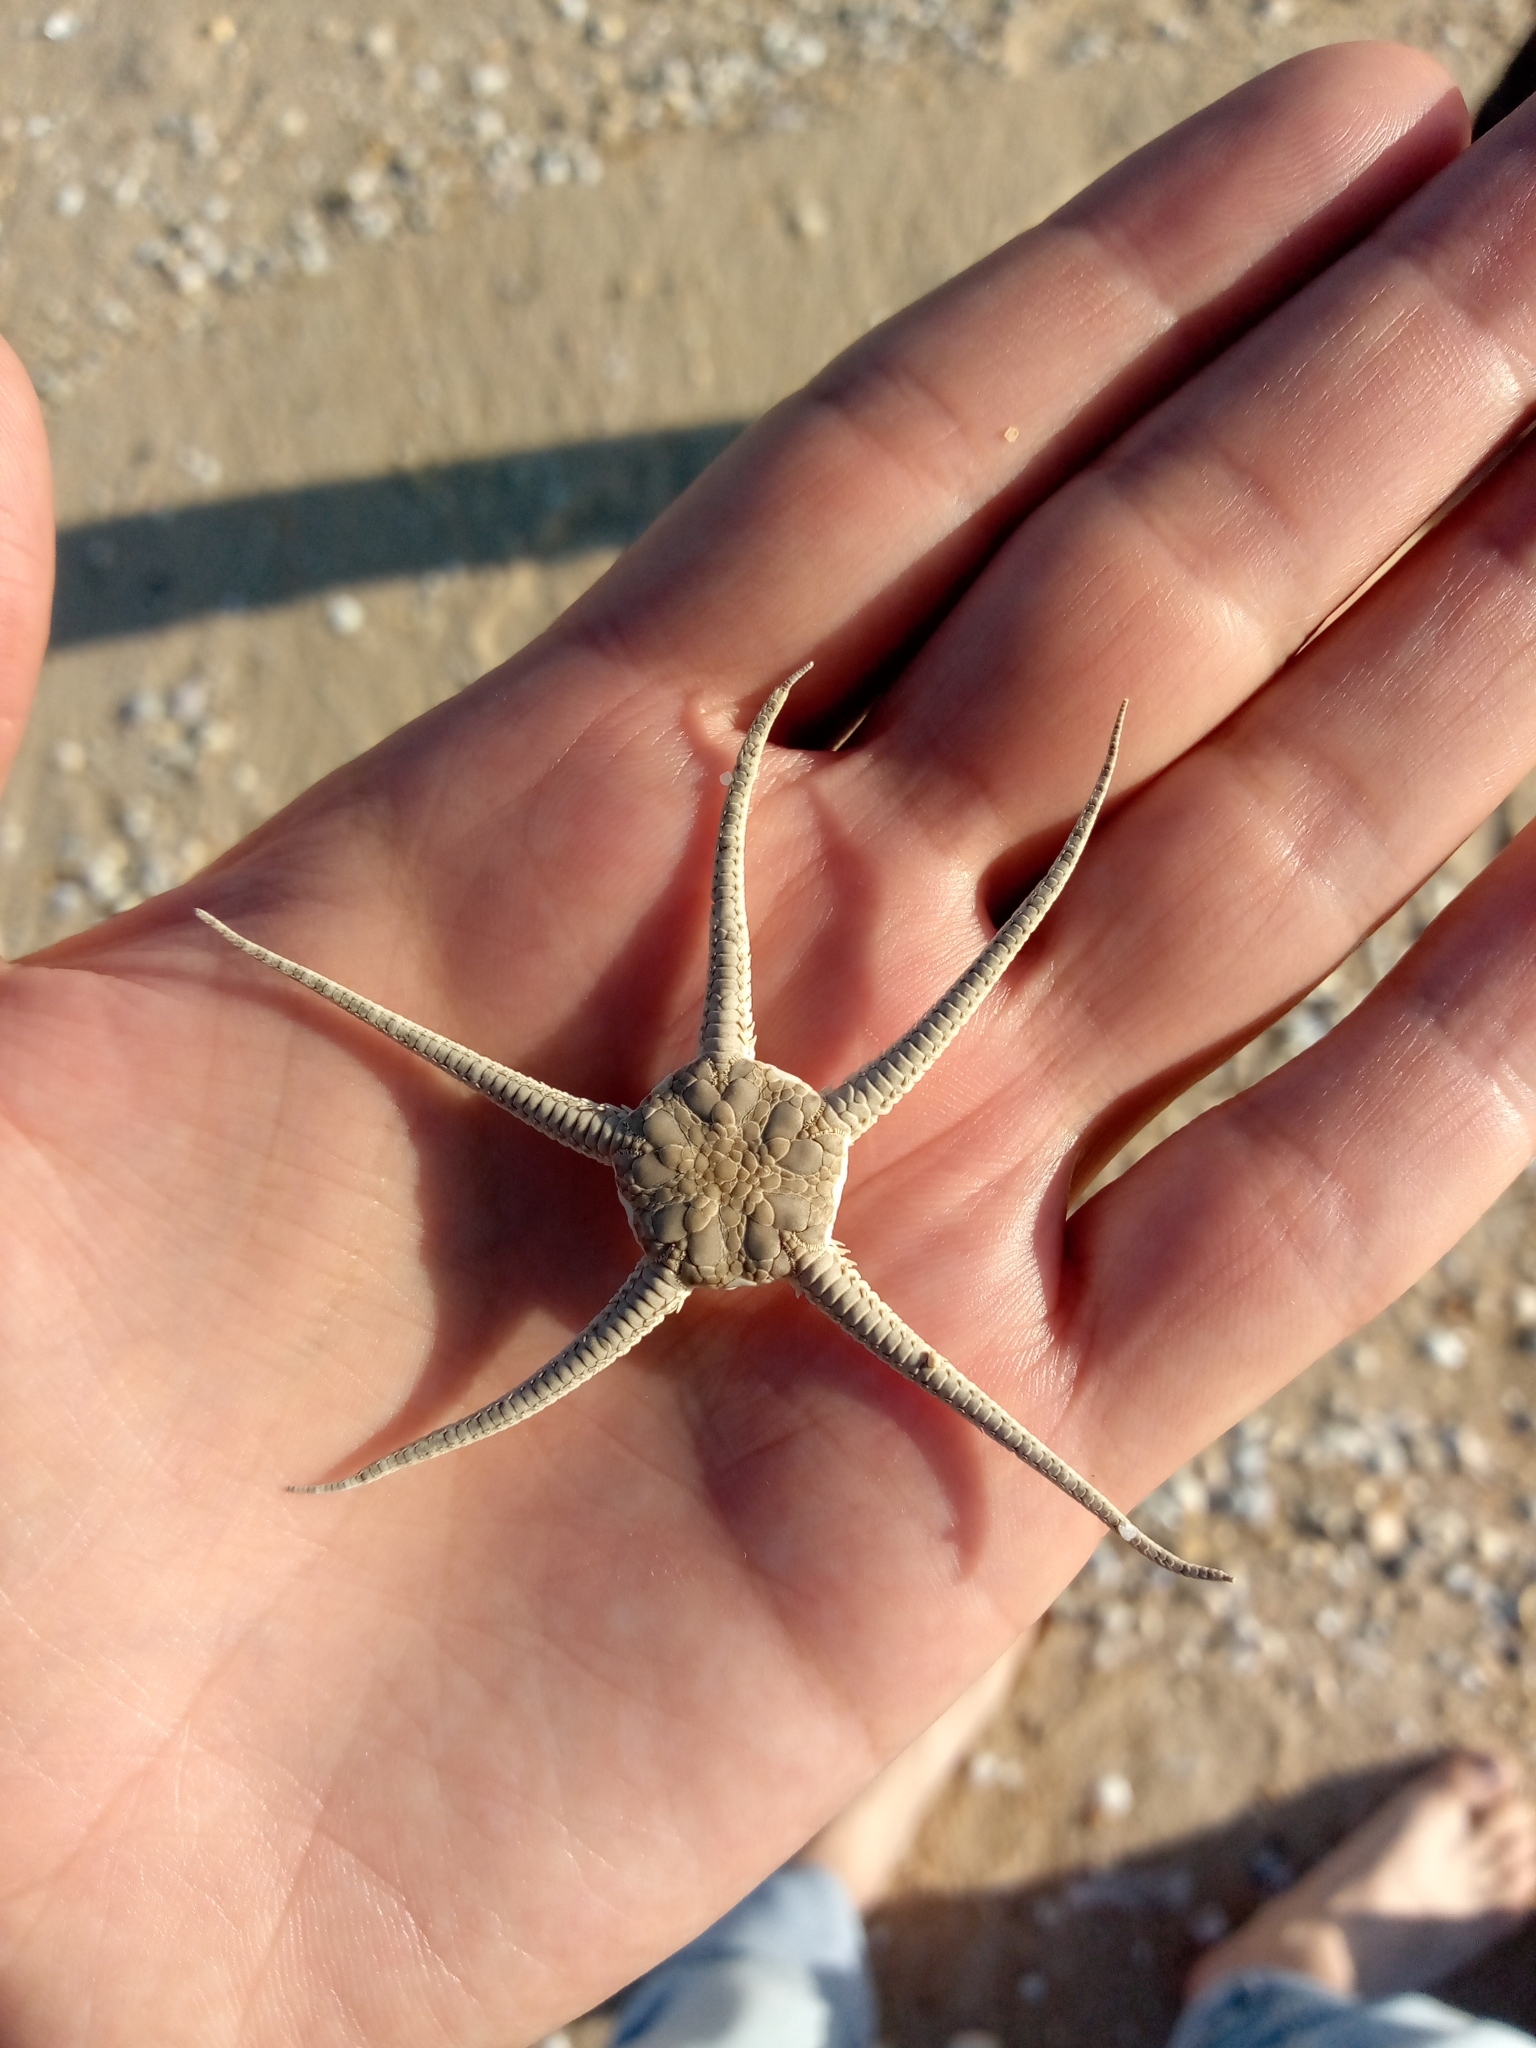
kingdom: Animalia
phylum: Echinodermata
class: Ophiuroidea
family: Ophiuridae
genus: Ophiura
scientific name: Ophiura ophiura
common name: Serpent star
